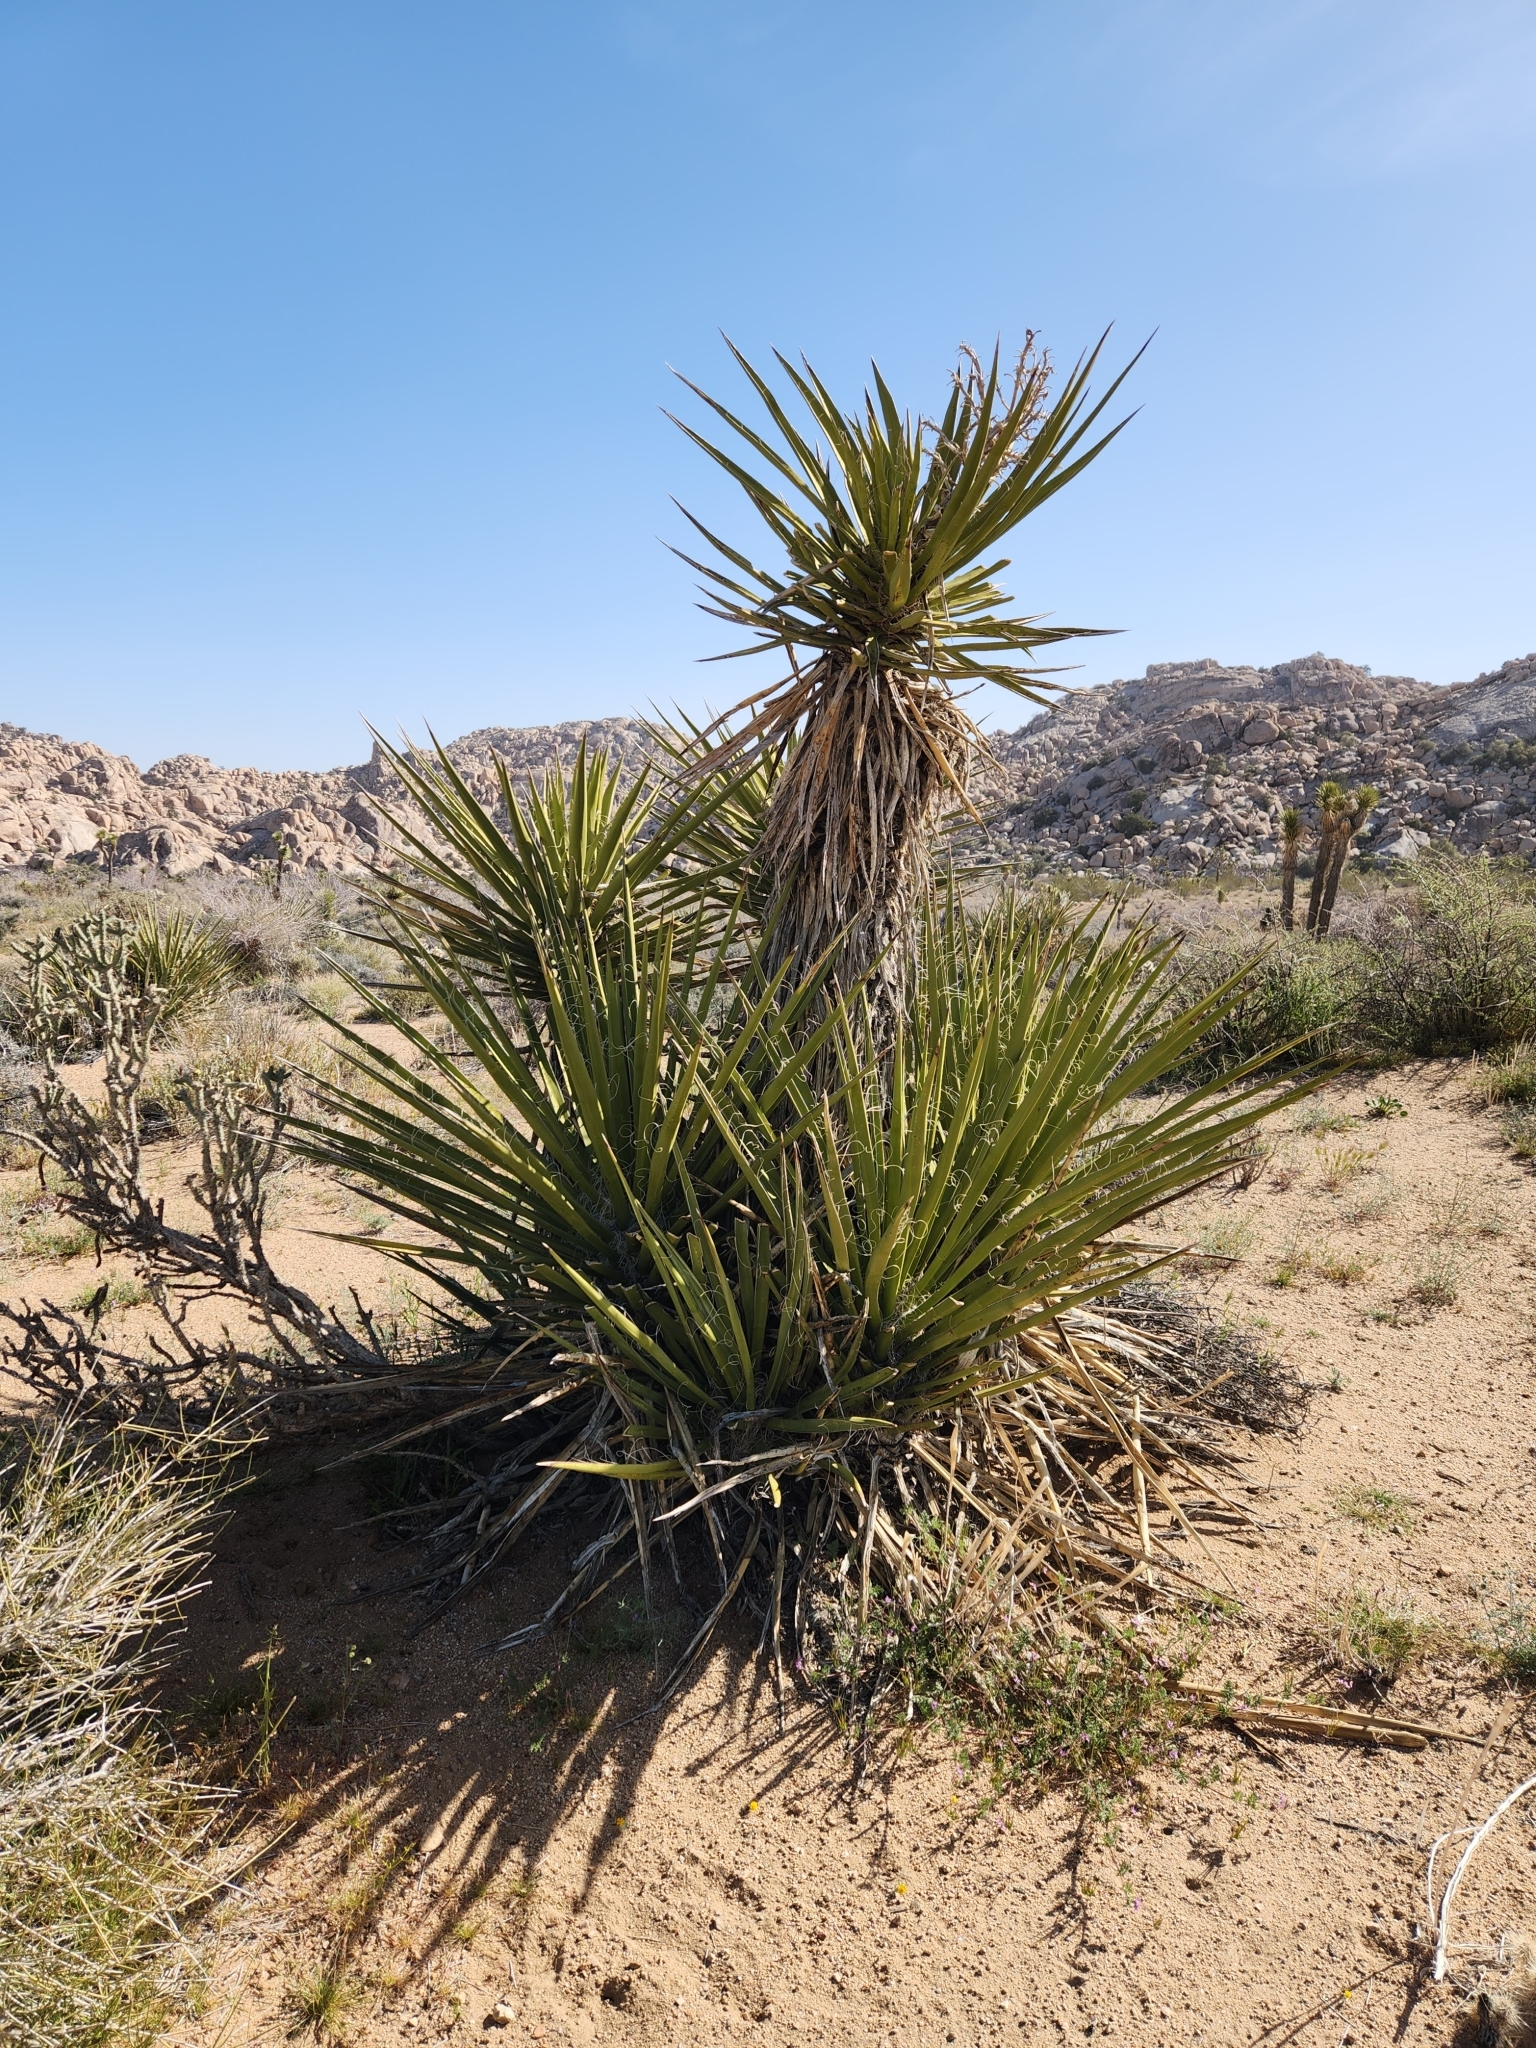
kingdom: Plantae
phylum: Tracheophyta
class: Liliopsida
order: Asparagales
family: Asparagaceae
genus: Yucca
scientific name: Yucca schidigera
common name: Mojave yucca
